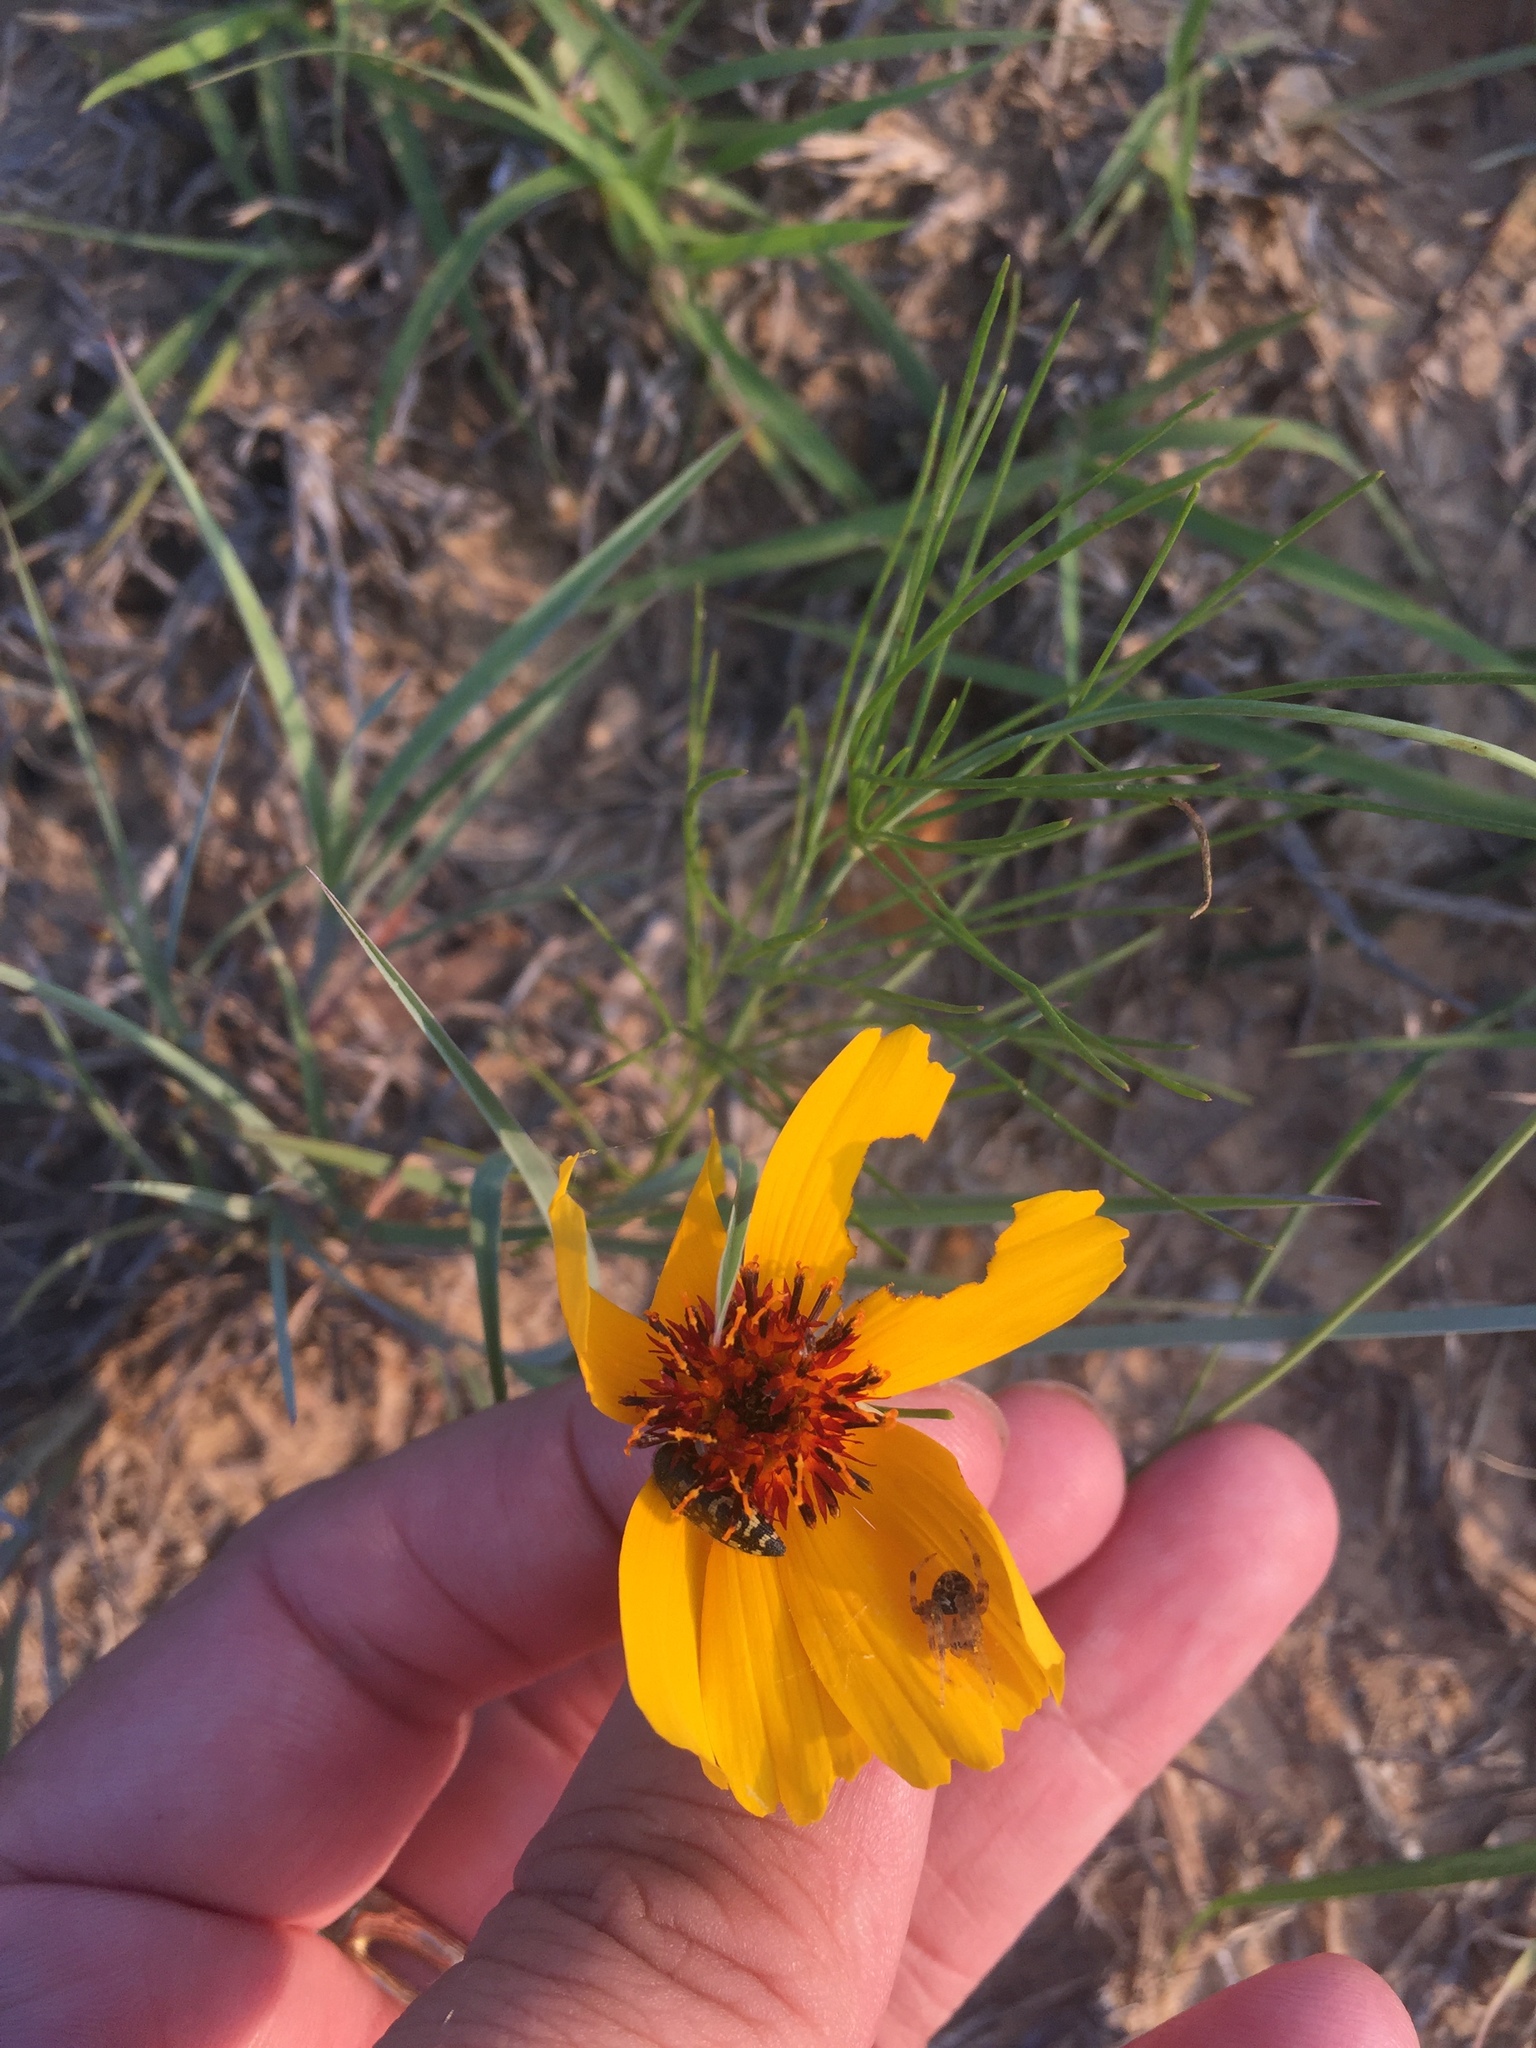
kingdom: Plantae
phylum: Tracheophyta
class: Magnoliopsida
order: Asterales
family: Asteraceae
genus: Thelesperma
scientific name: Thelesperma filifolium
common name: Stiff greenthread
